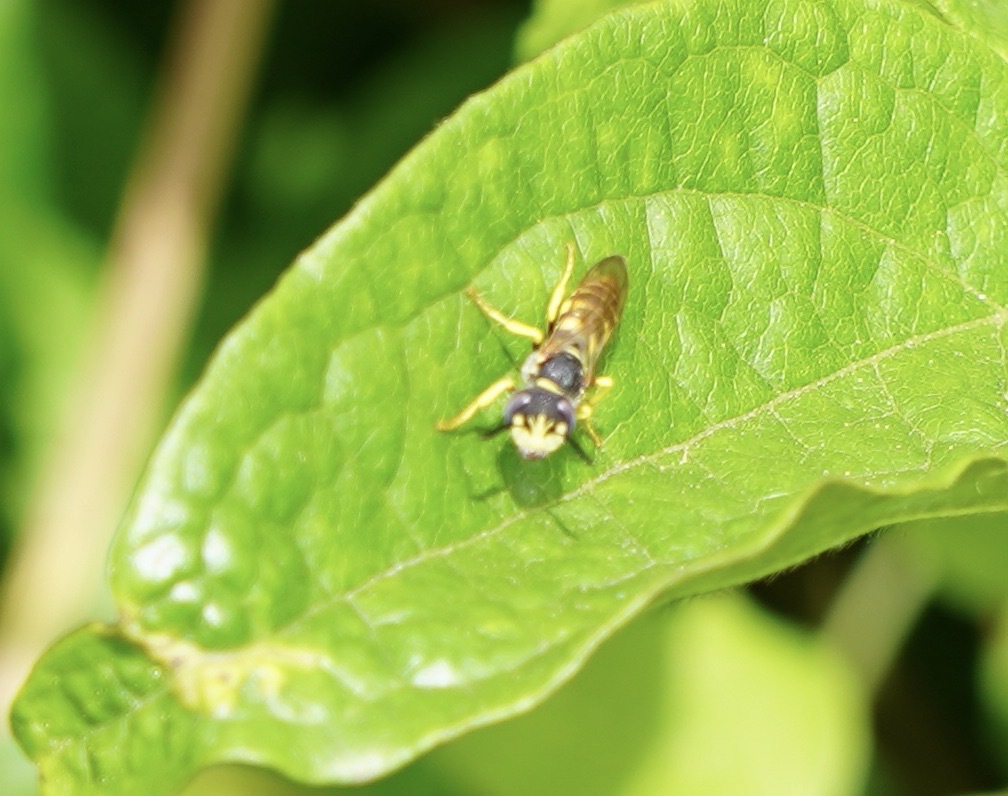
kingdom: Animalia
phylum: Arthropoda
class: Insecta
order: Hymenoptera
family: Crabronidae
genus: Philanthus
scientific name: Philanthus triangulum
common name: Bee wolf
